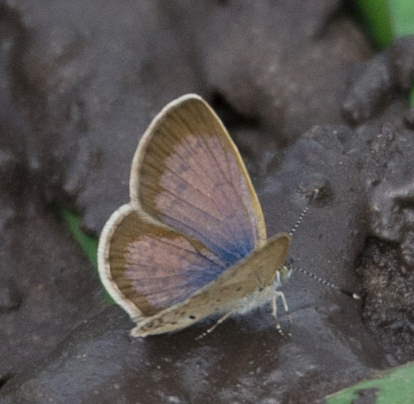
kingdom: Animalia
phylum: Arthropoda
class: Insecta
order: Lepidoptera
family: Lycaenidae
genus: Zizeeria
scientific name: Zizeeria knysna
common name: African grass blue
